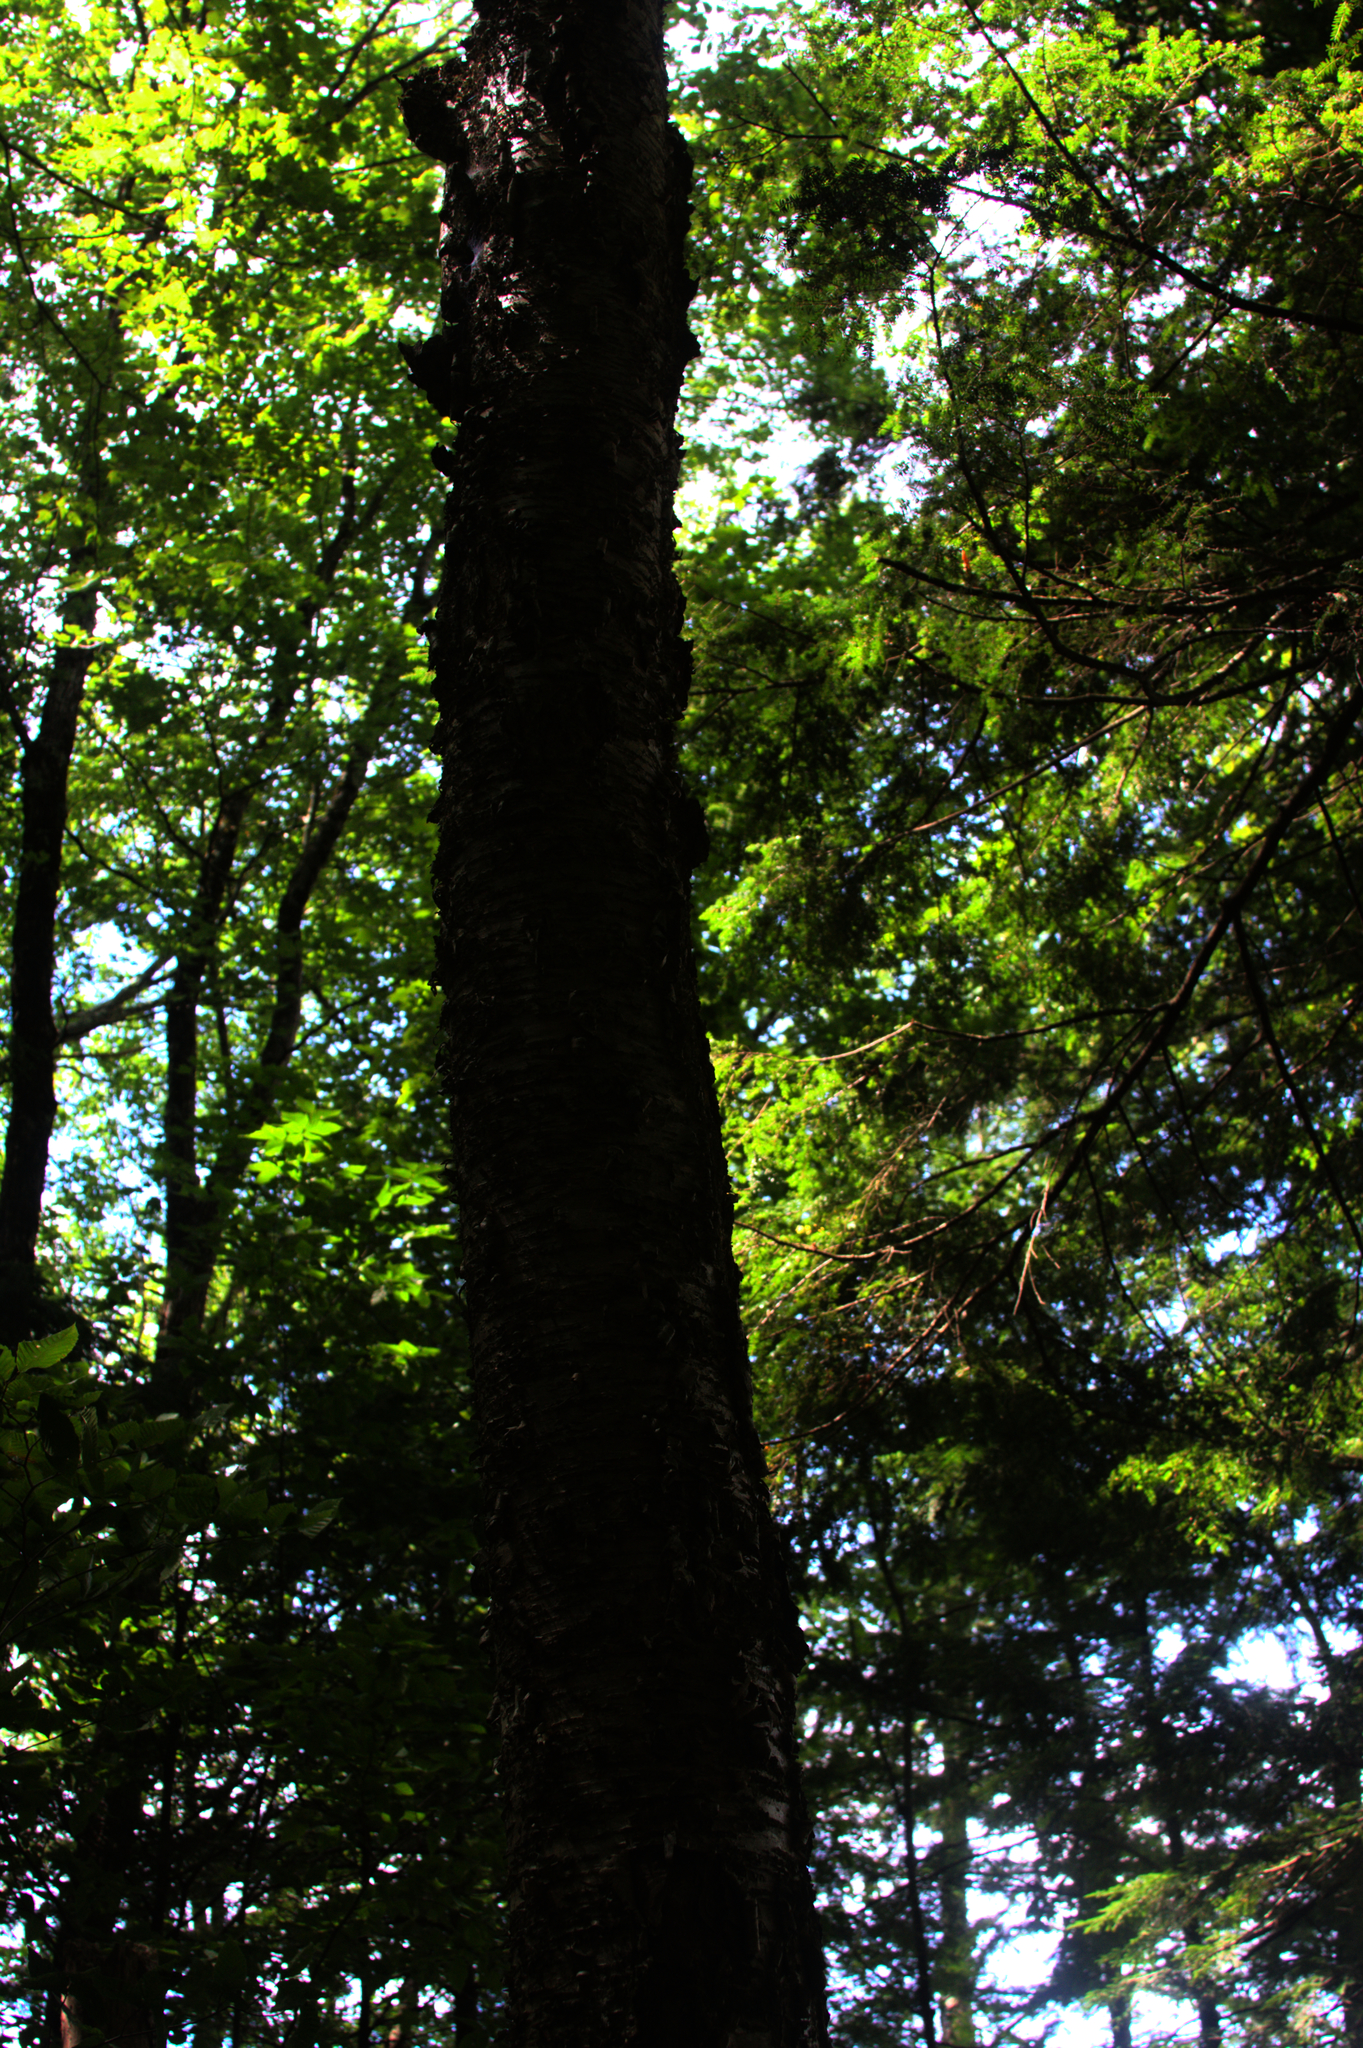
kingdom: Plantae
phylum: Tracheophyta
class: Magnoliopsida
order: Fagales
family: Betulaceae
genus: Betula
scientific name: Betula alleghaniensis
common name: Yellow birch
